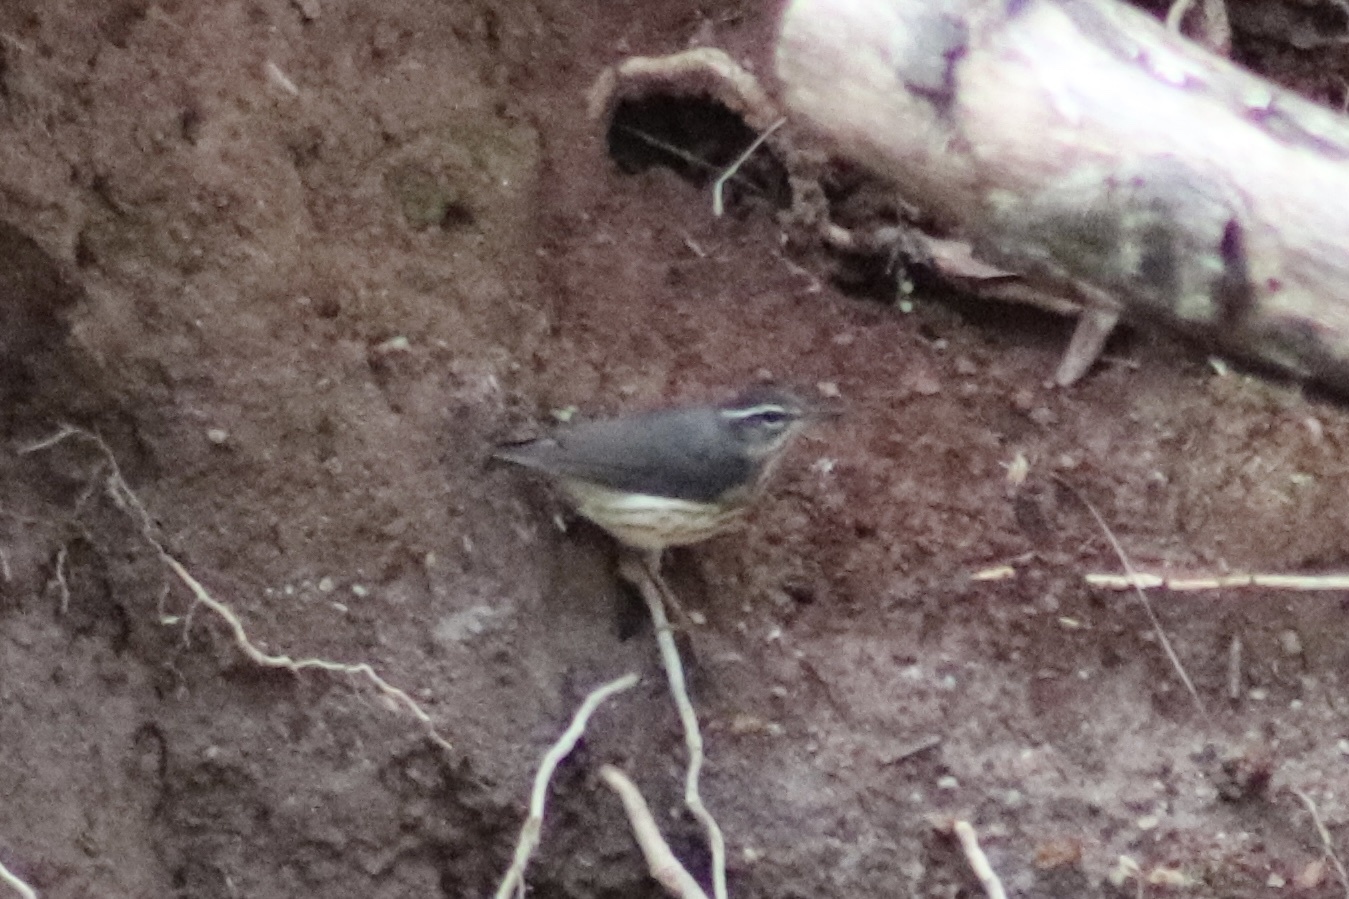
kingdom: Animalia
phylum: Chordata
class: Aves
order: Passeriformes
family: Parulidae
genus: Parkesia
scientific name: Parkesia motacilla
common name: Louisiana waterthrush
